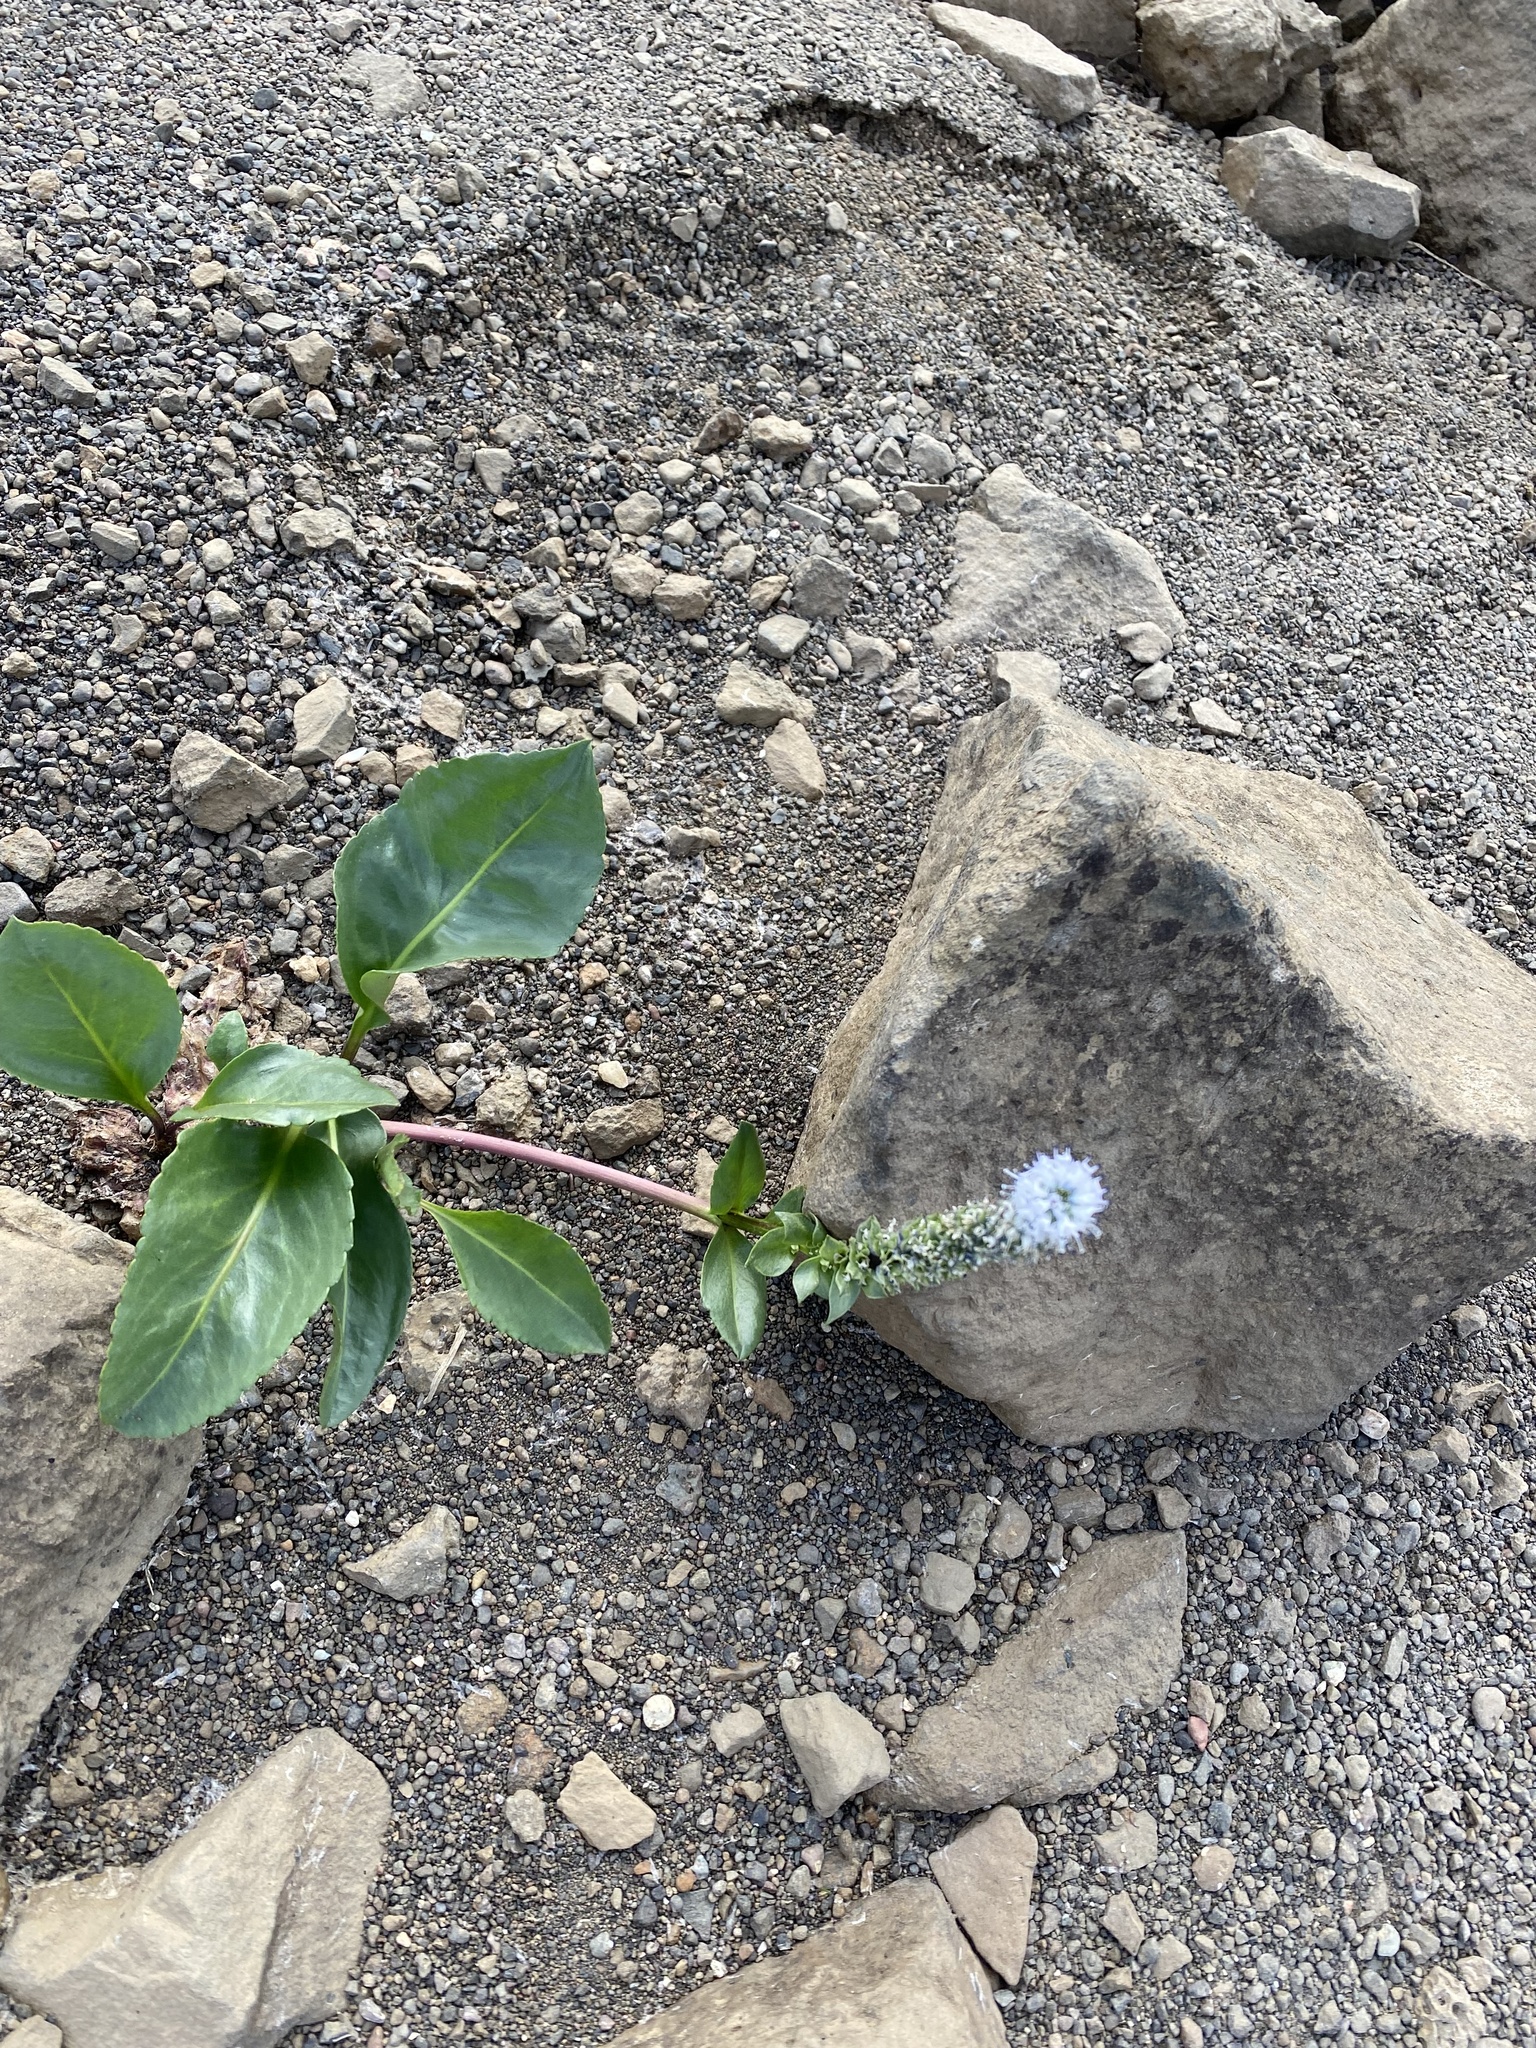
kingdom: Plantae
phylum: Tracheophyta
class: Magnoliopsida
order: Lamiales
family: Plantaginaceae
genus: Lagotis
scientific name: Lagotis glauca
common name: Glaucous weaselsnout
